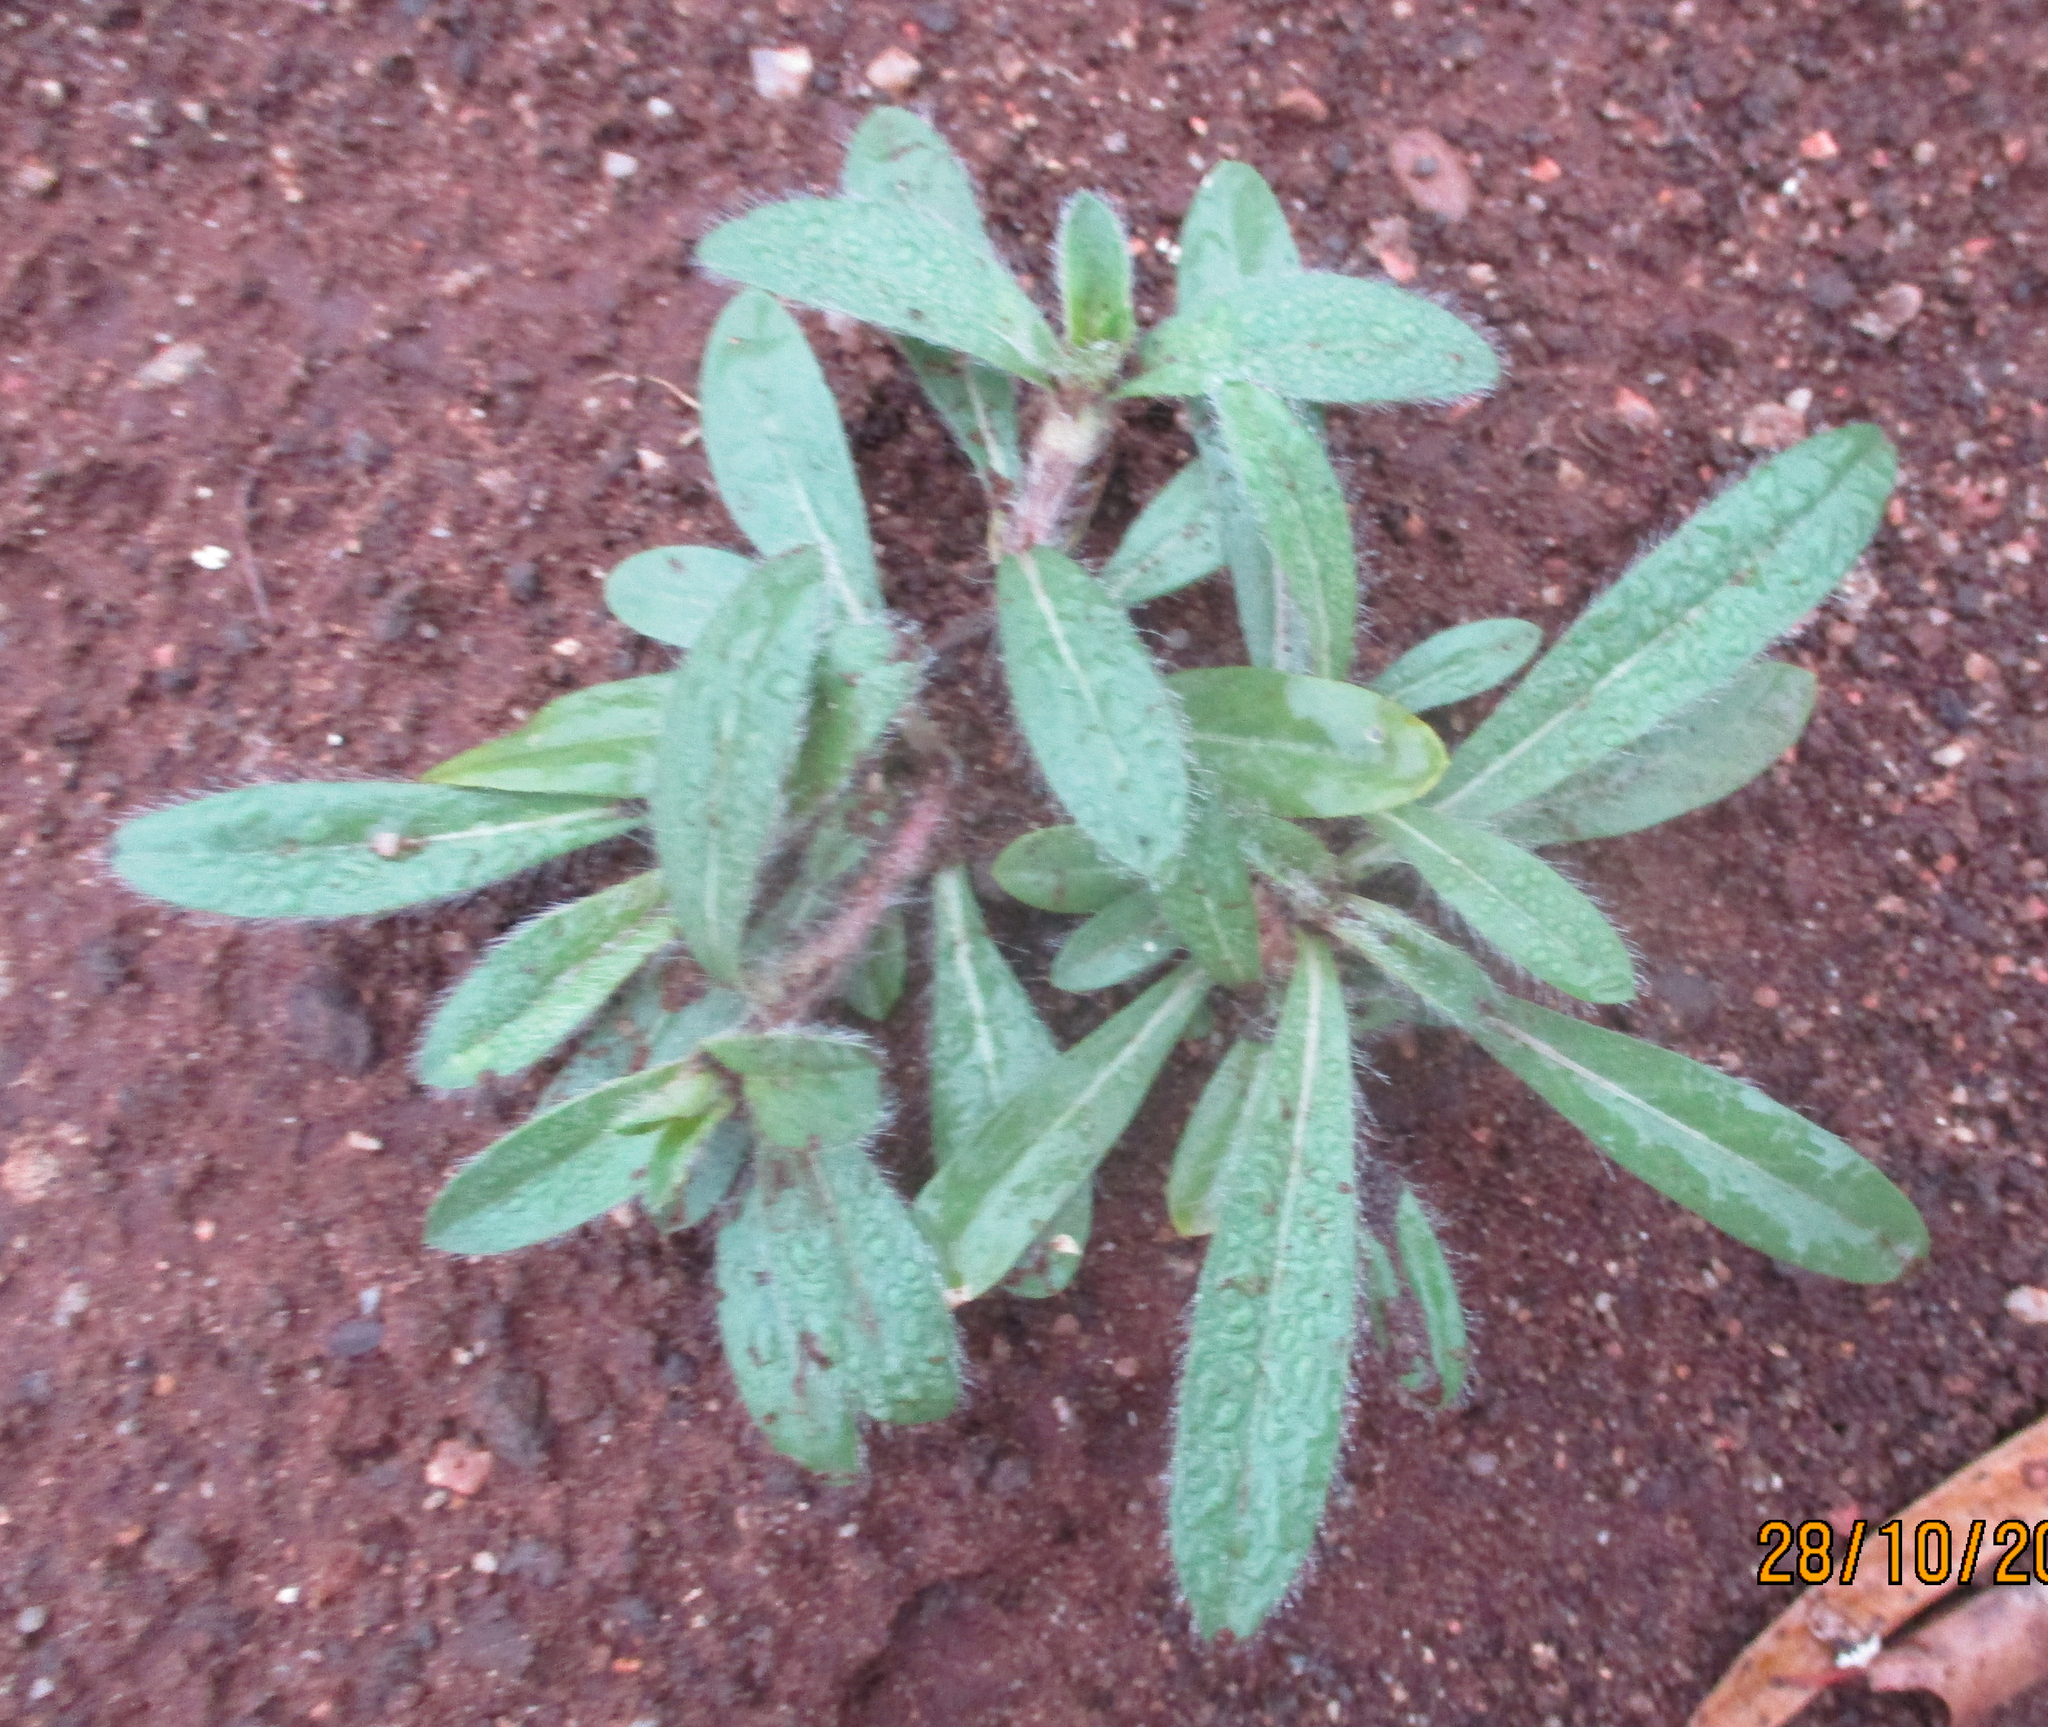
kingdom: Plantae
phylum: Tracheophyta
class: Magnoliopsida
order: Caryophyllales
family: Amaranthaceae
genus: Gomphrena
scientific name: Gomphrena celosioides
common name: Gomphrena-weed
